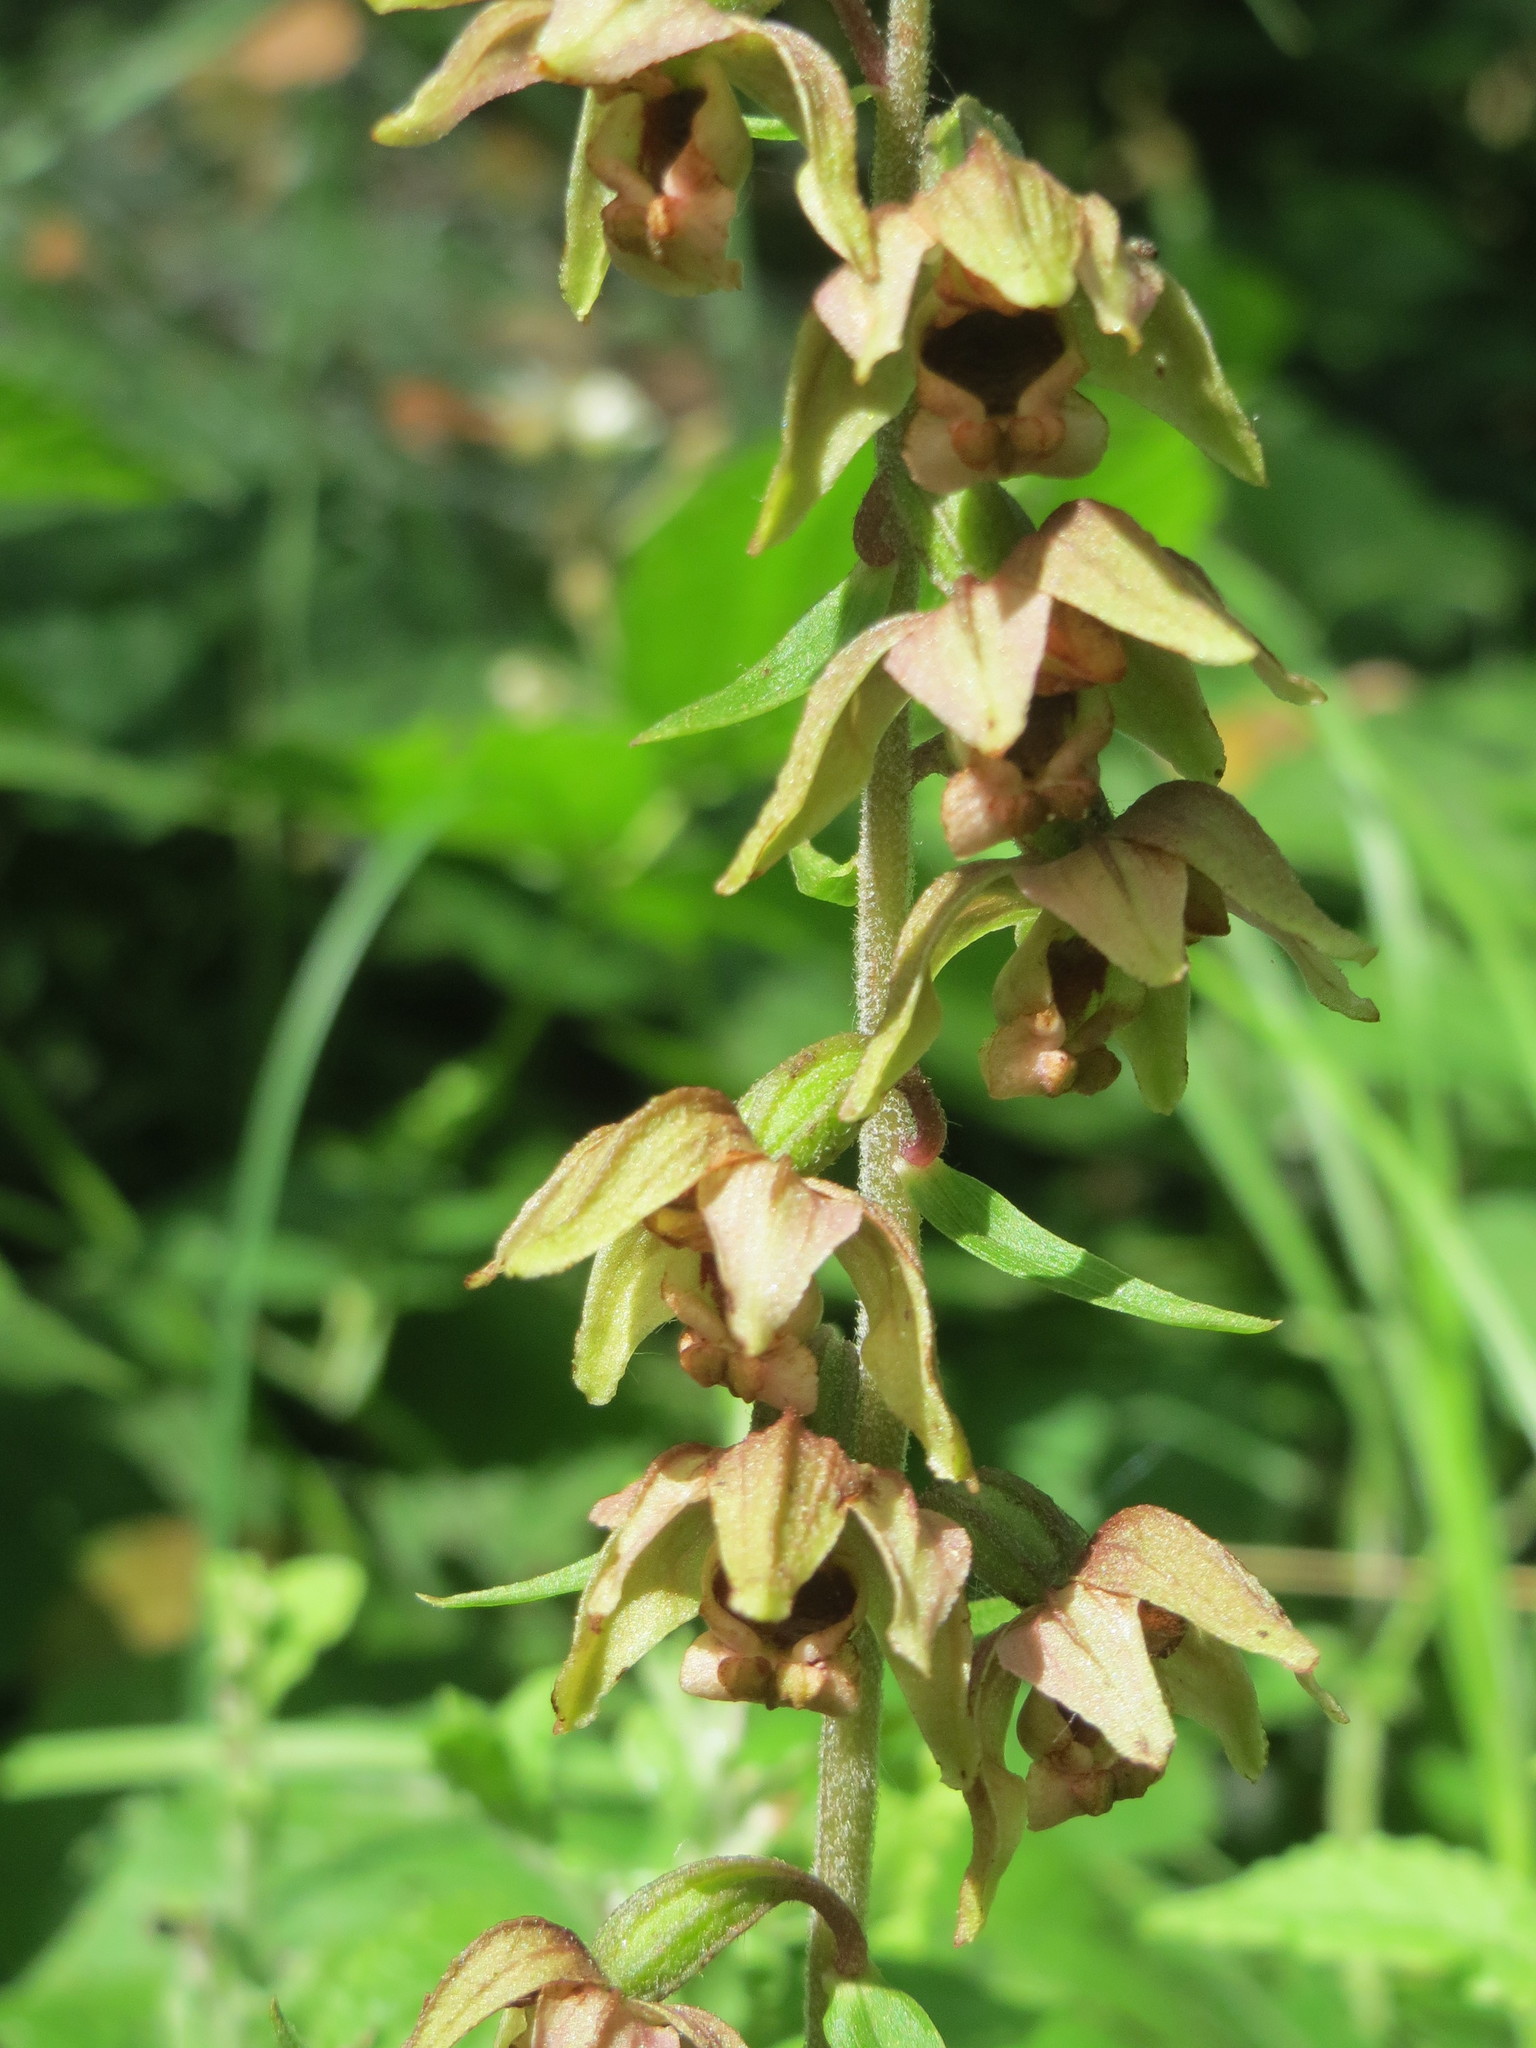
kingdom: Plantae
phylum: Tracheophyta
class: Liliopsida
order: Asparagales
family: Orchidaceae
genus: Epipactis
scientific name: Epipactis helleborine
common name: Broad-leaved helleborine
